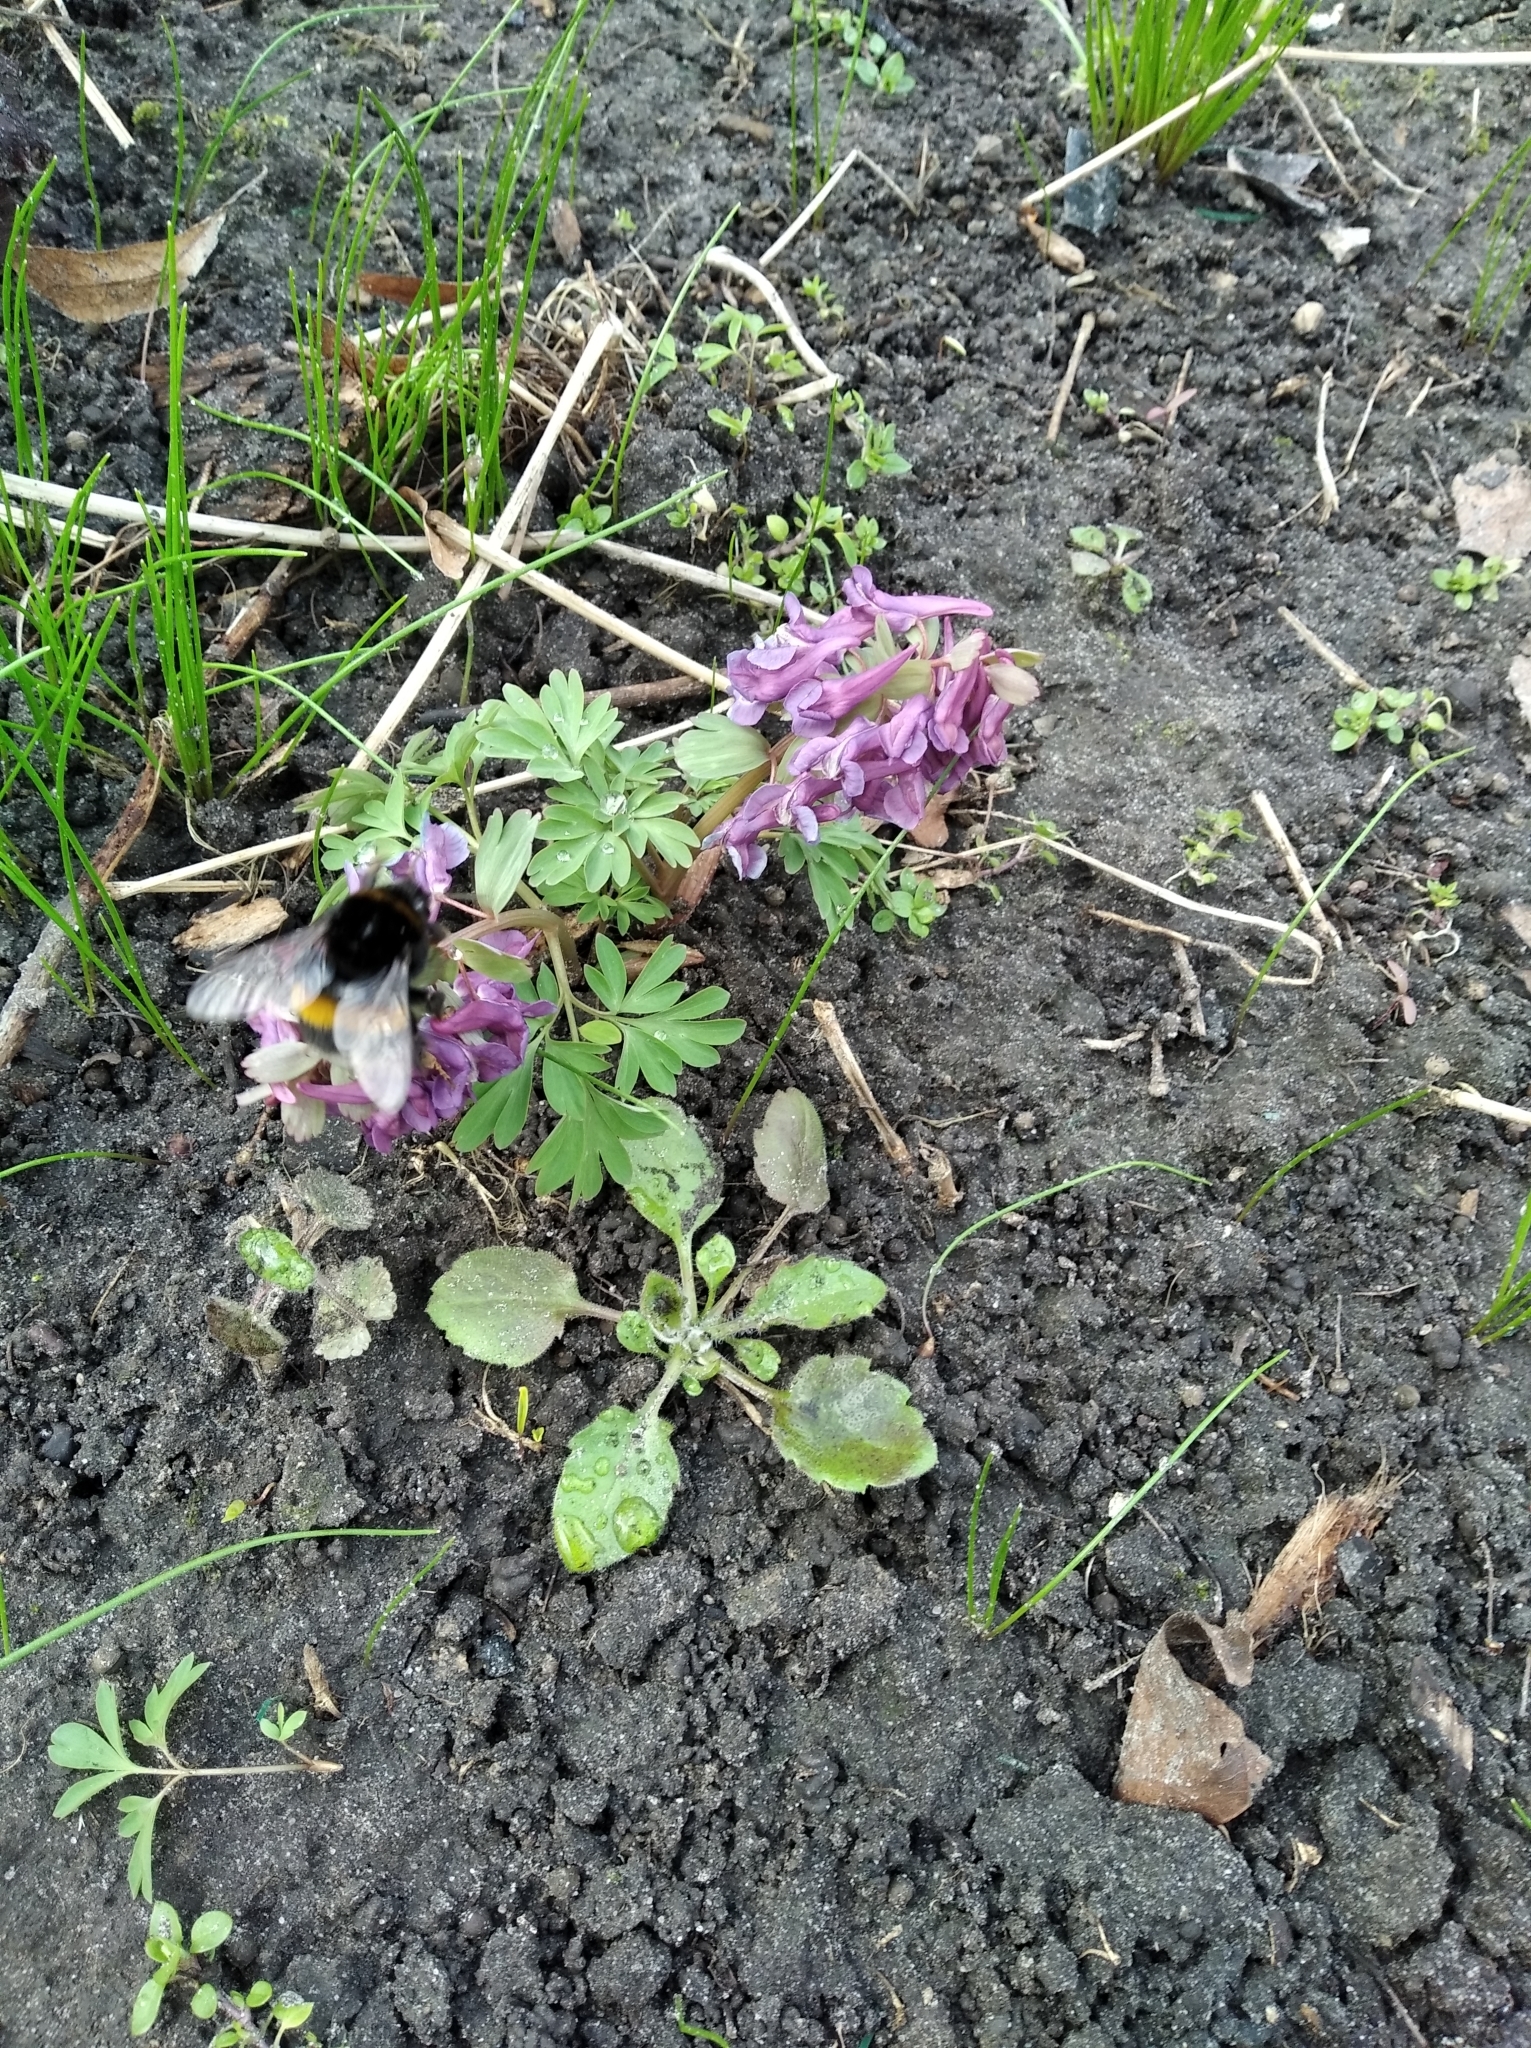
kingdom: Animalia
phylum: Arthropoda
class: Insecta
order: Hymenoptera
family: Apidae
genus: Bombus
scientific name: Bombus terrestris
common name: Buff-tailed bumblebee
